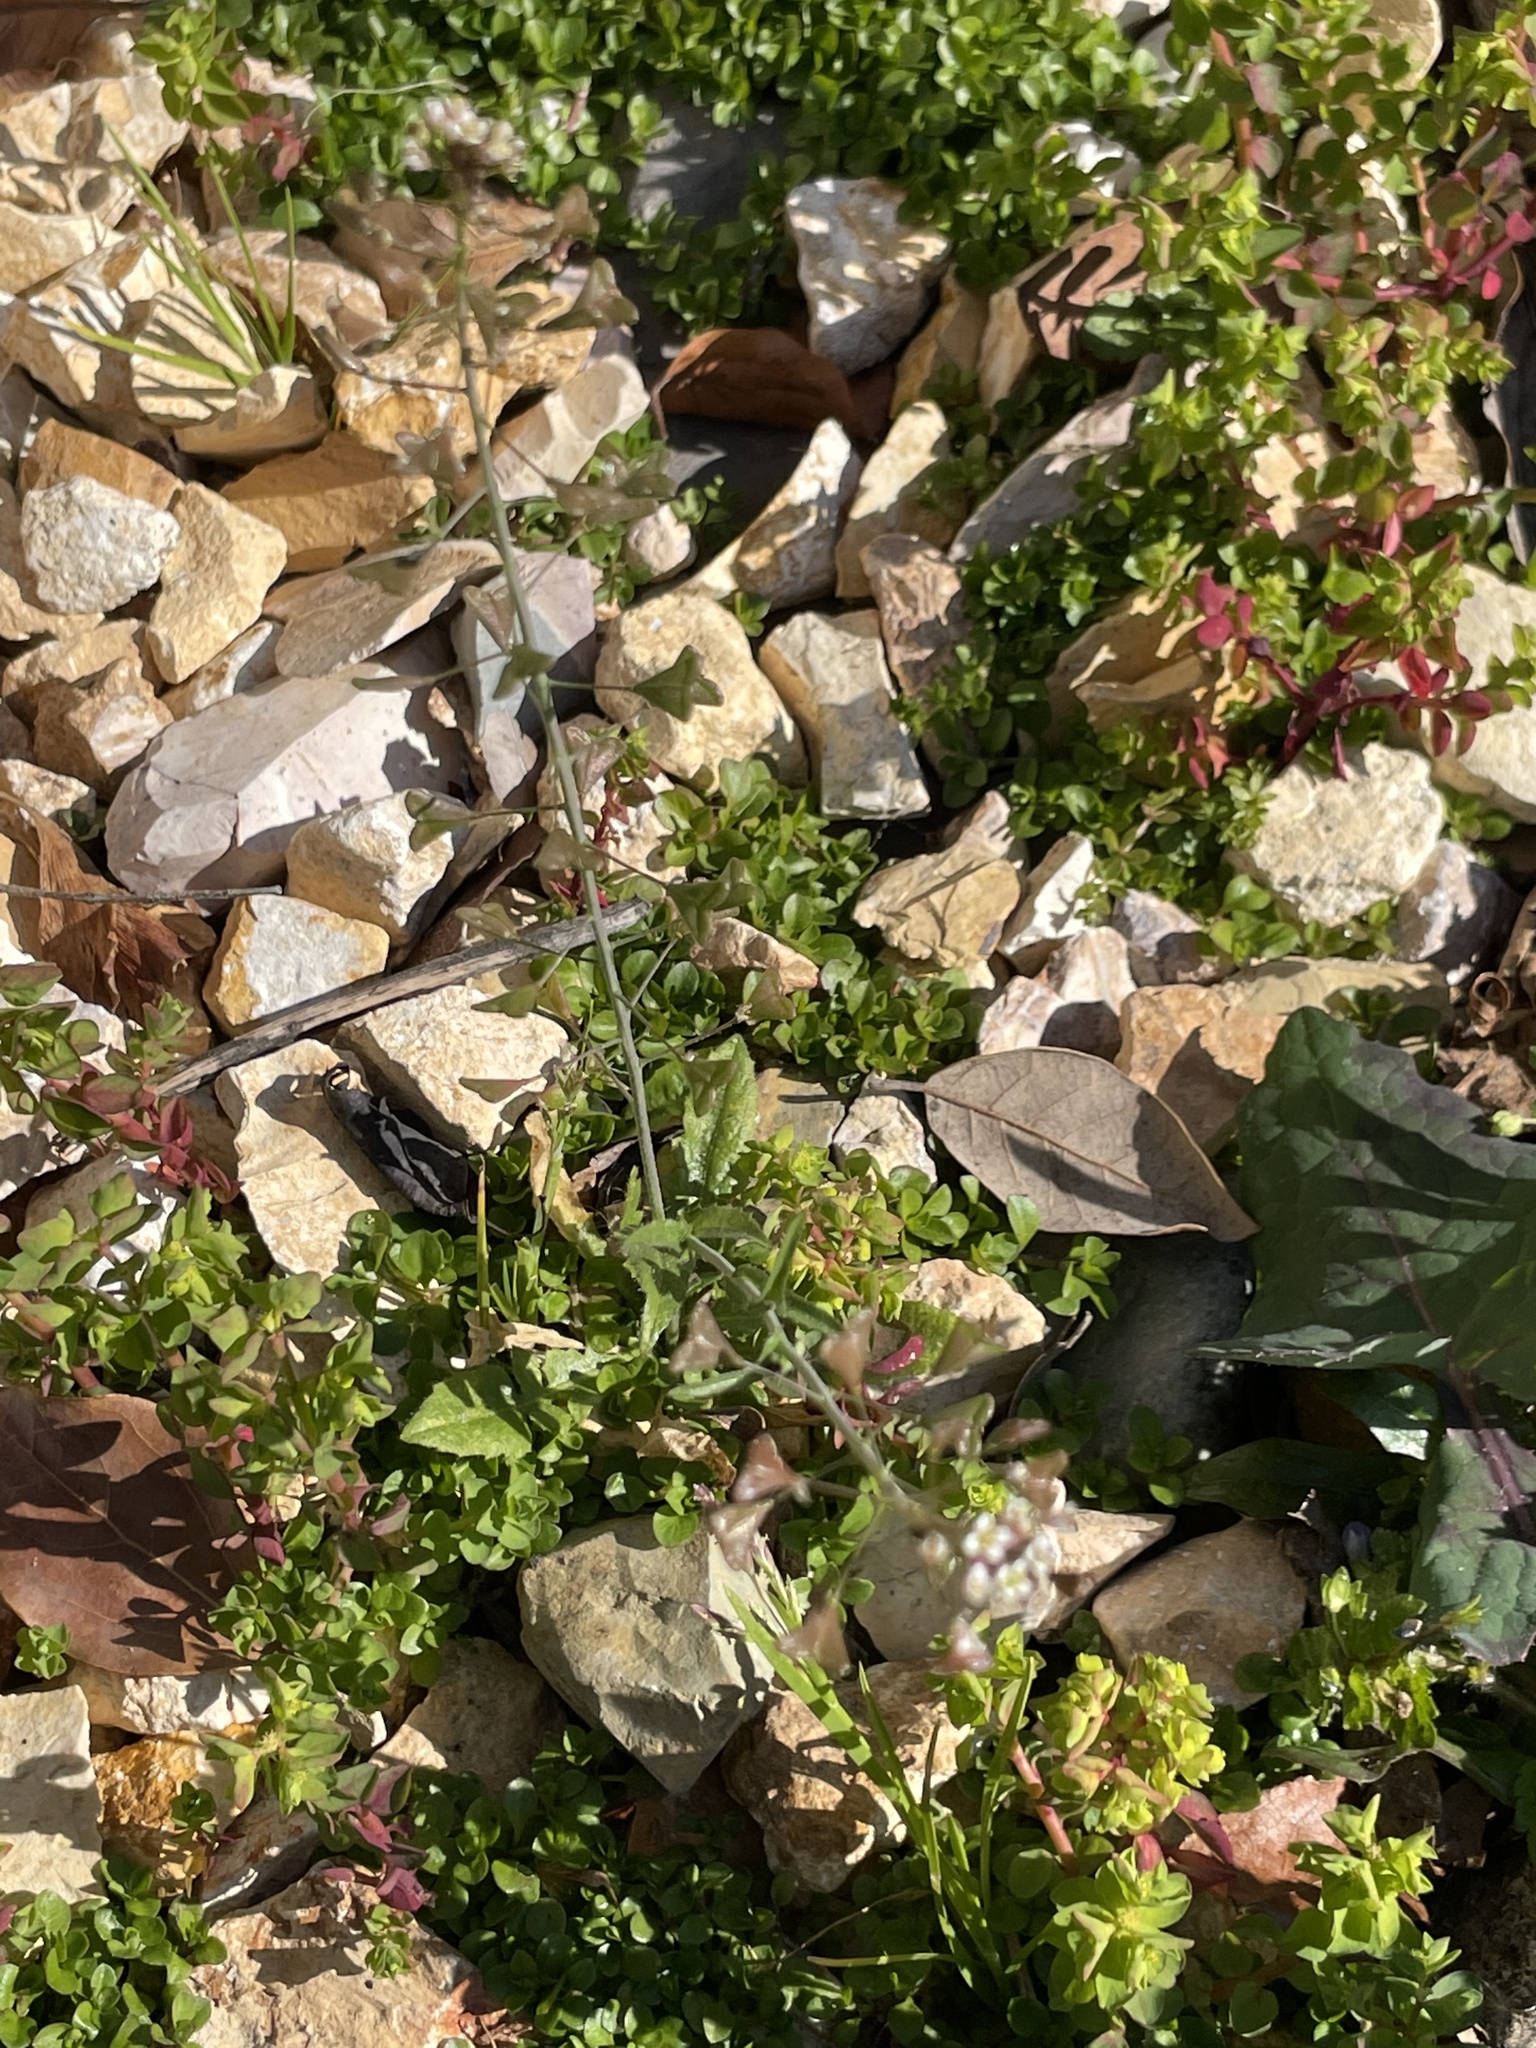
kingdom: Plantae
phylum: Tracheophyta
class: Magnoliopsida
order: Brassicales
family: Brassicaceae
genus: Capsella
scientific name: Capsella bursa-pastoris
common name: Shepherd's purse
